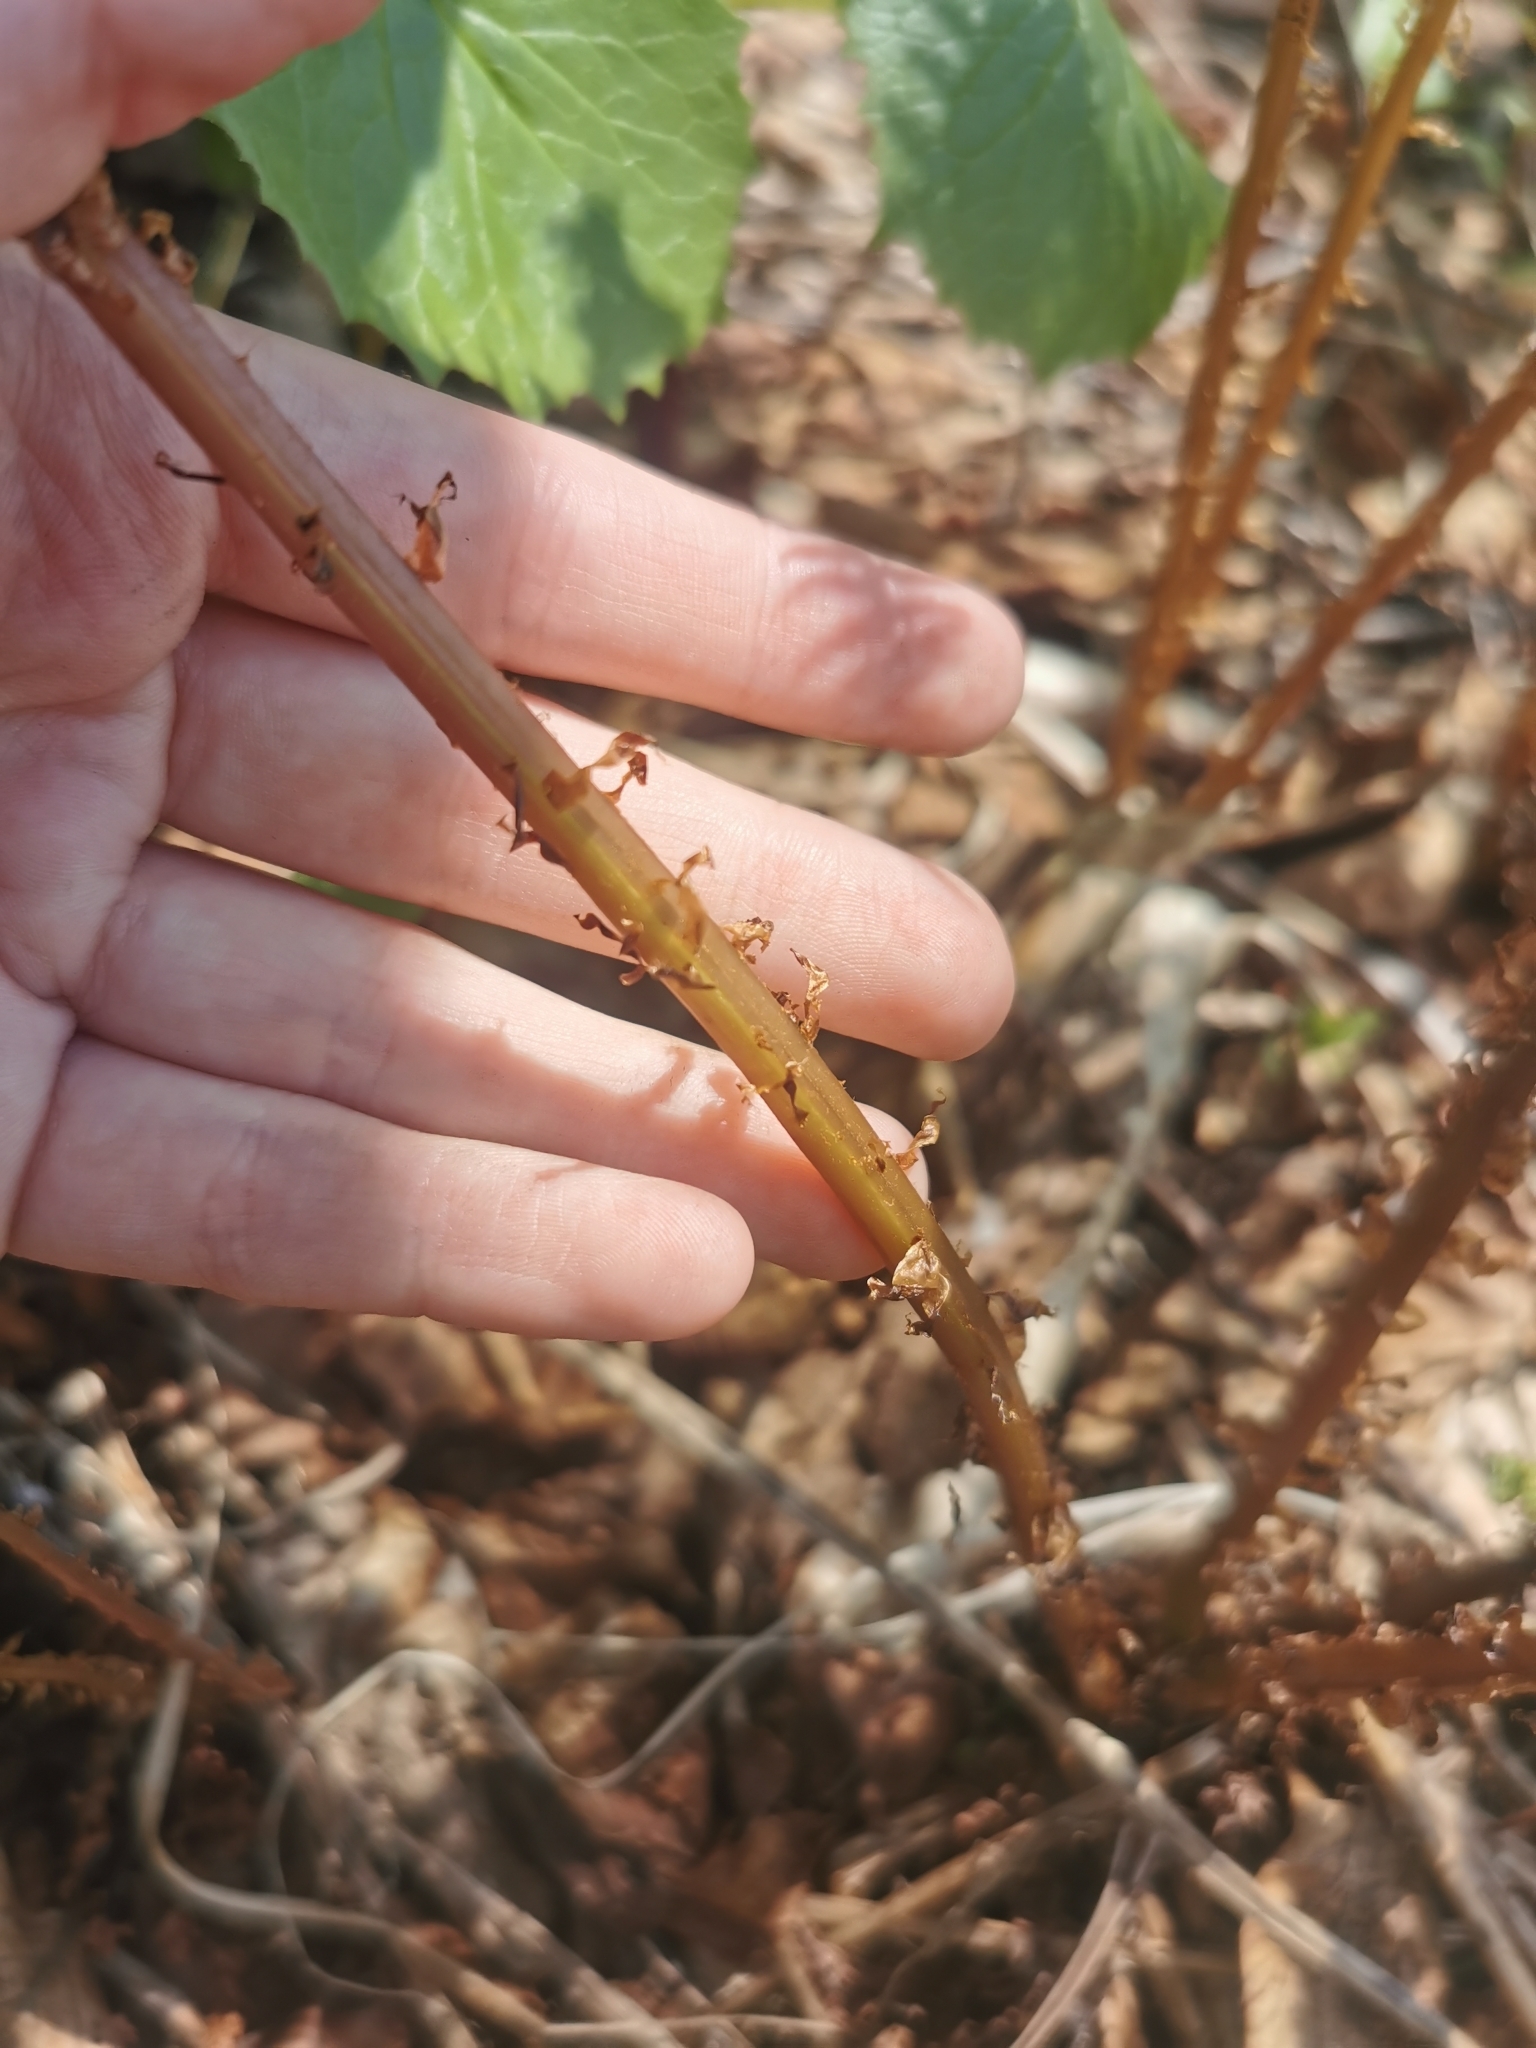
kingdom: Plantae
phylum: Tracheophyta
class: Polypodiopsida
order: Polypodiales
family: Athyriaceae
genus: Athyrium
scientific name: Athyrium filix-femina
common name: Lady fern
